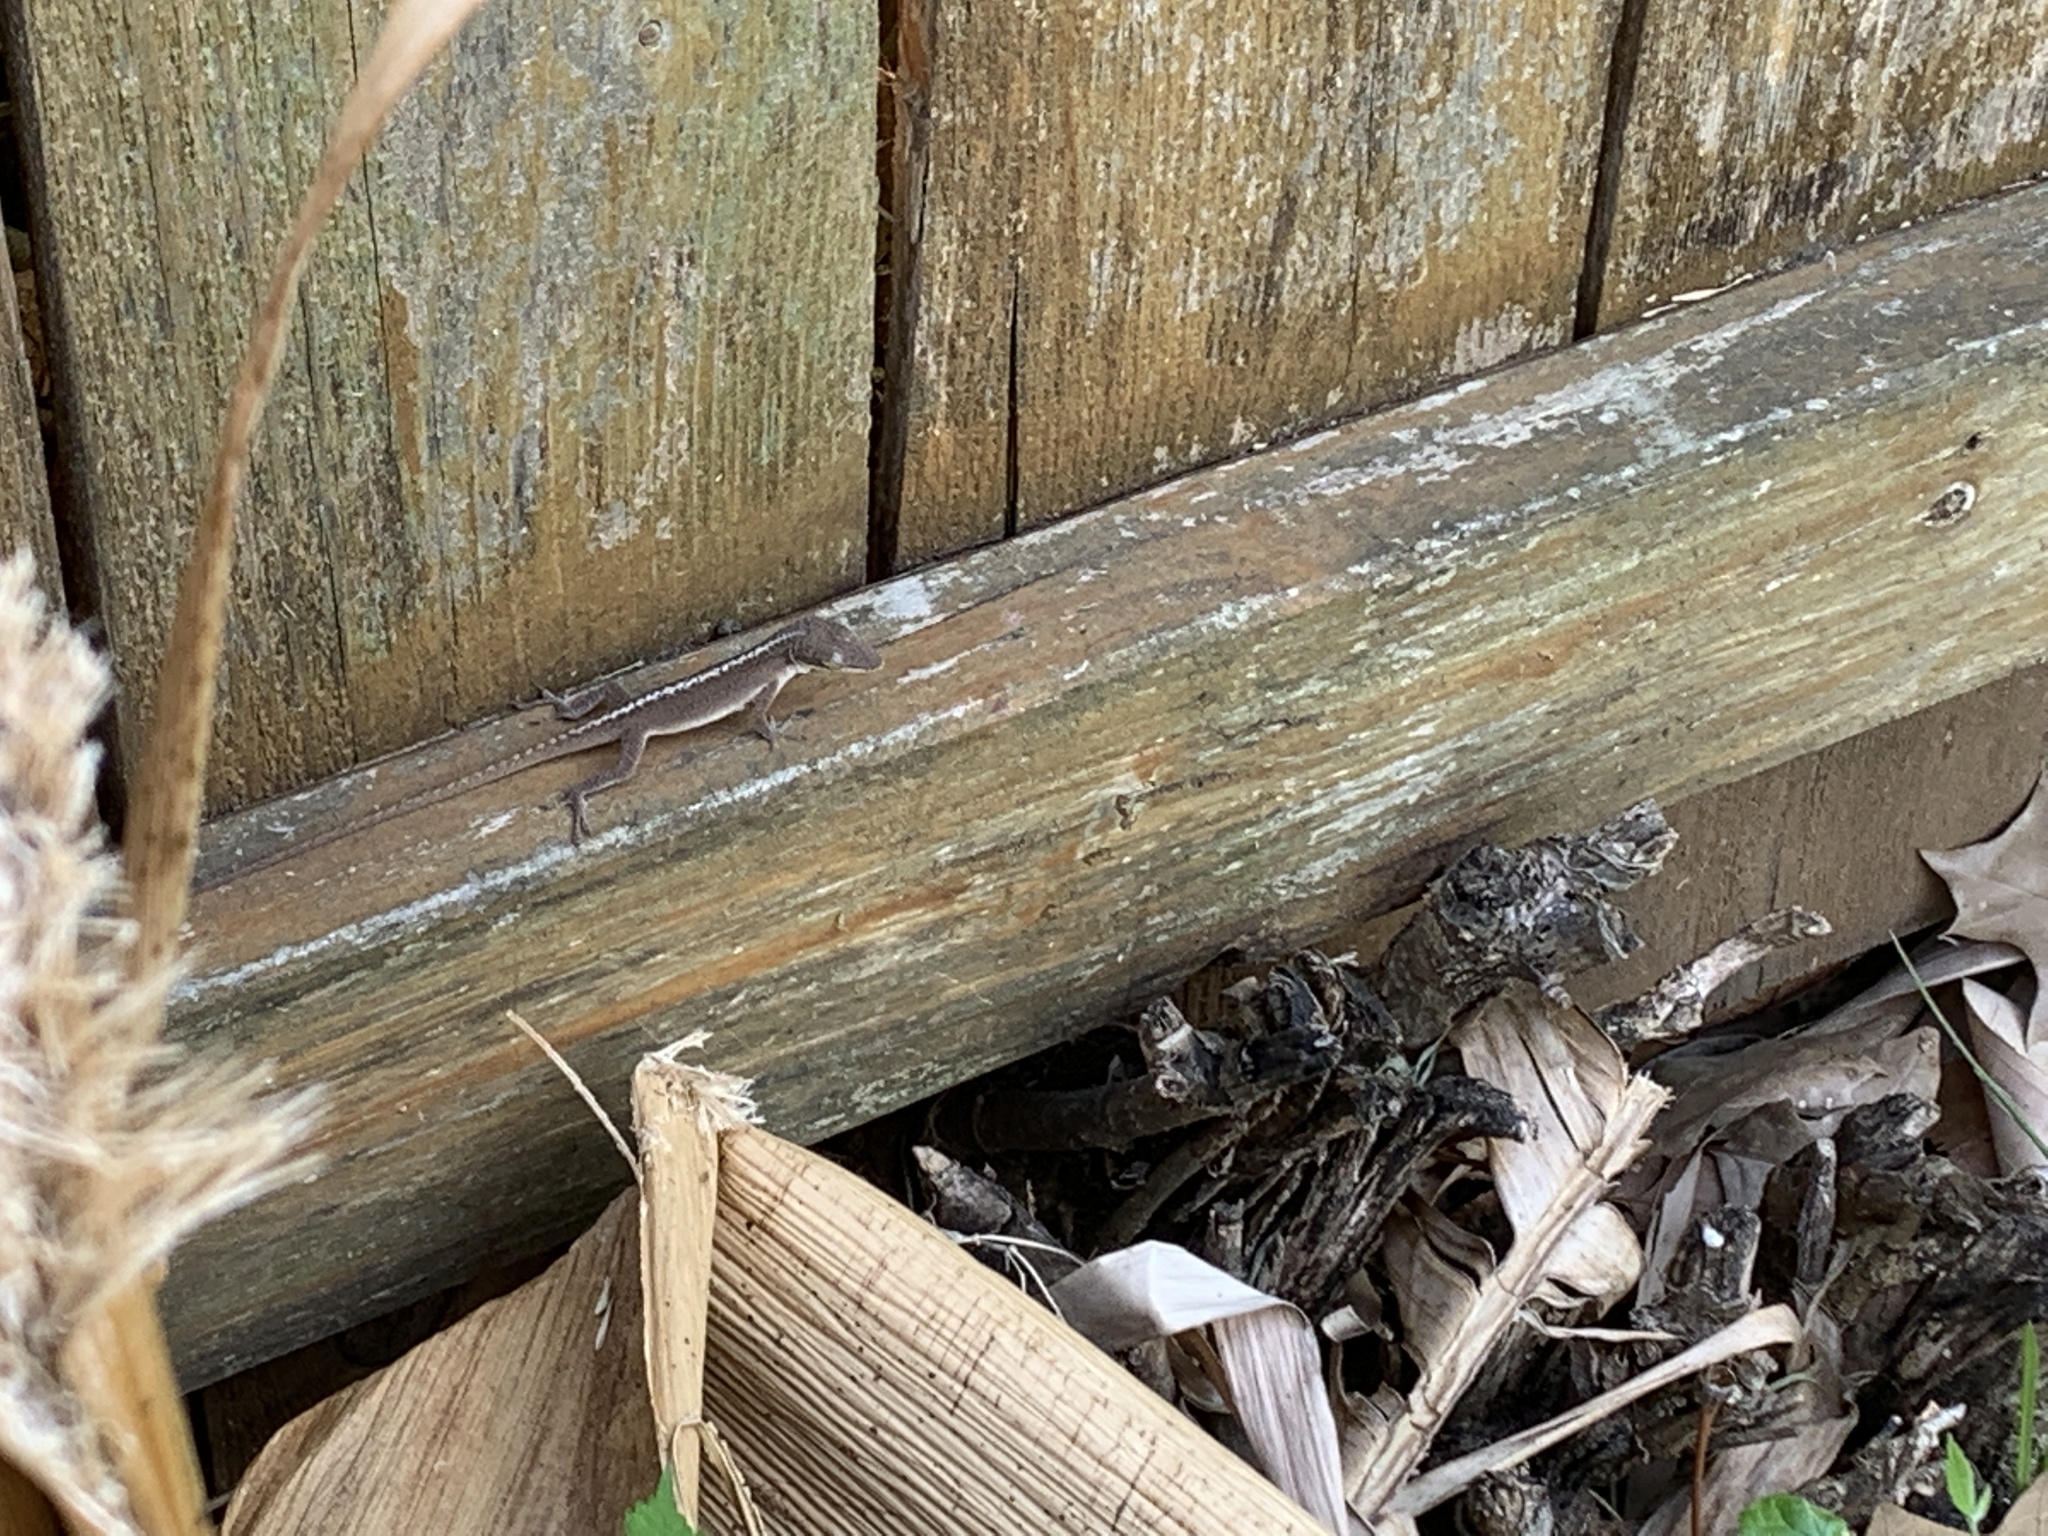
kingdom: Animalia
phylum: Chordata
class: Squamata
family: Dactyloidae
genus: Anolis
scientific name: Anolis carolinensis
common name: Green anole
